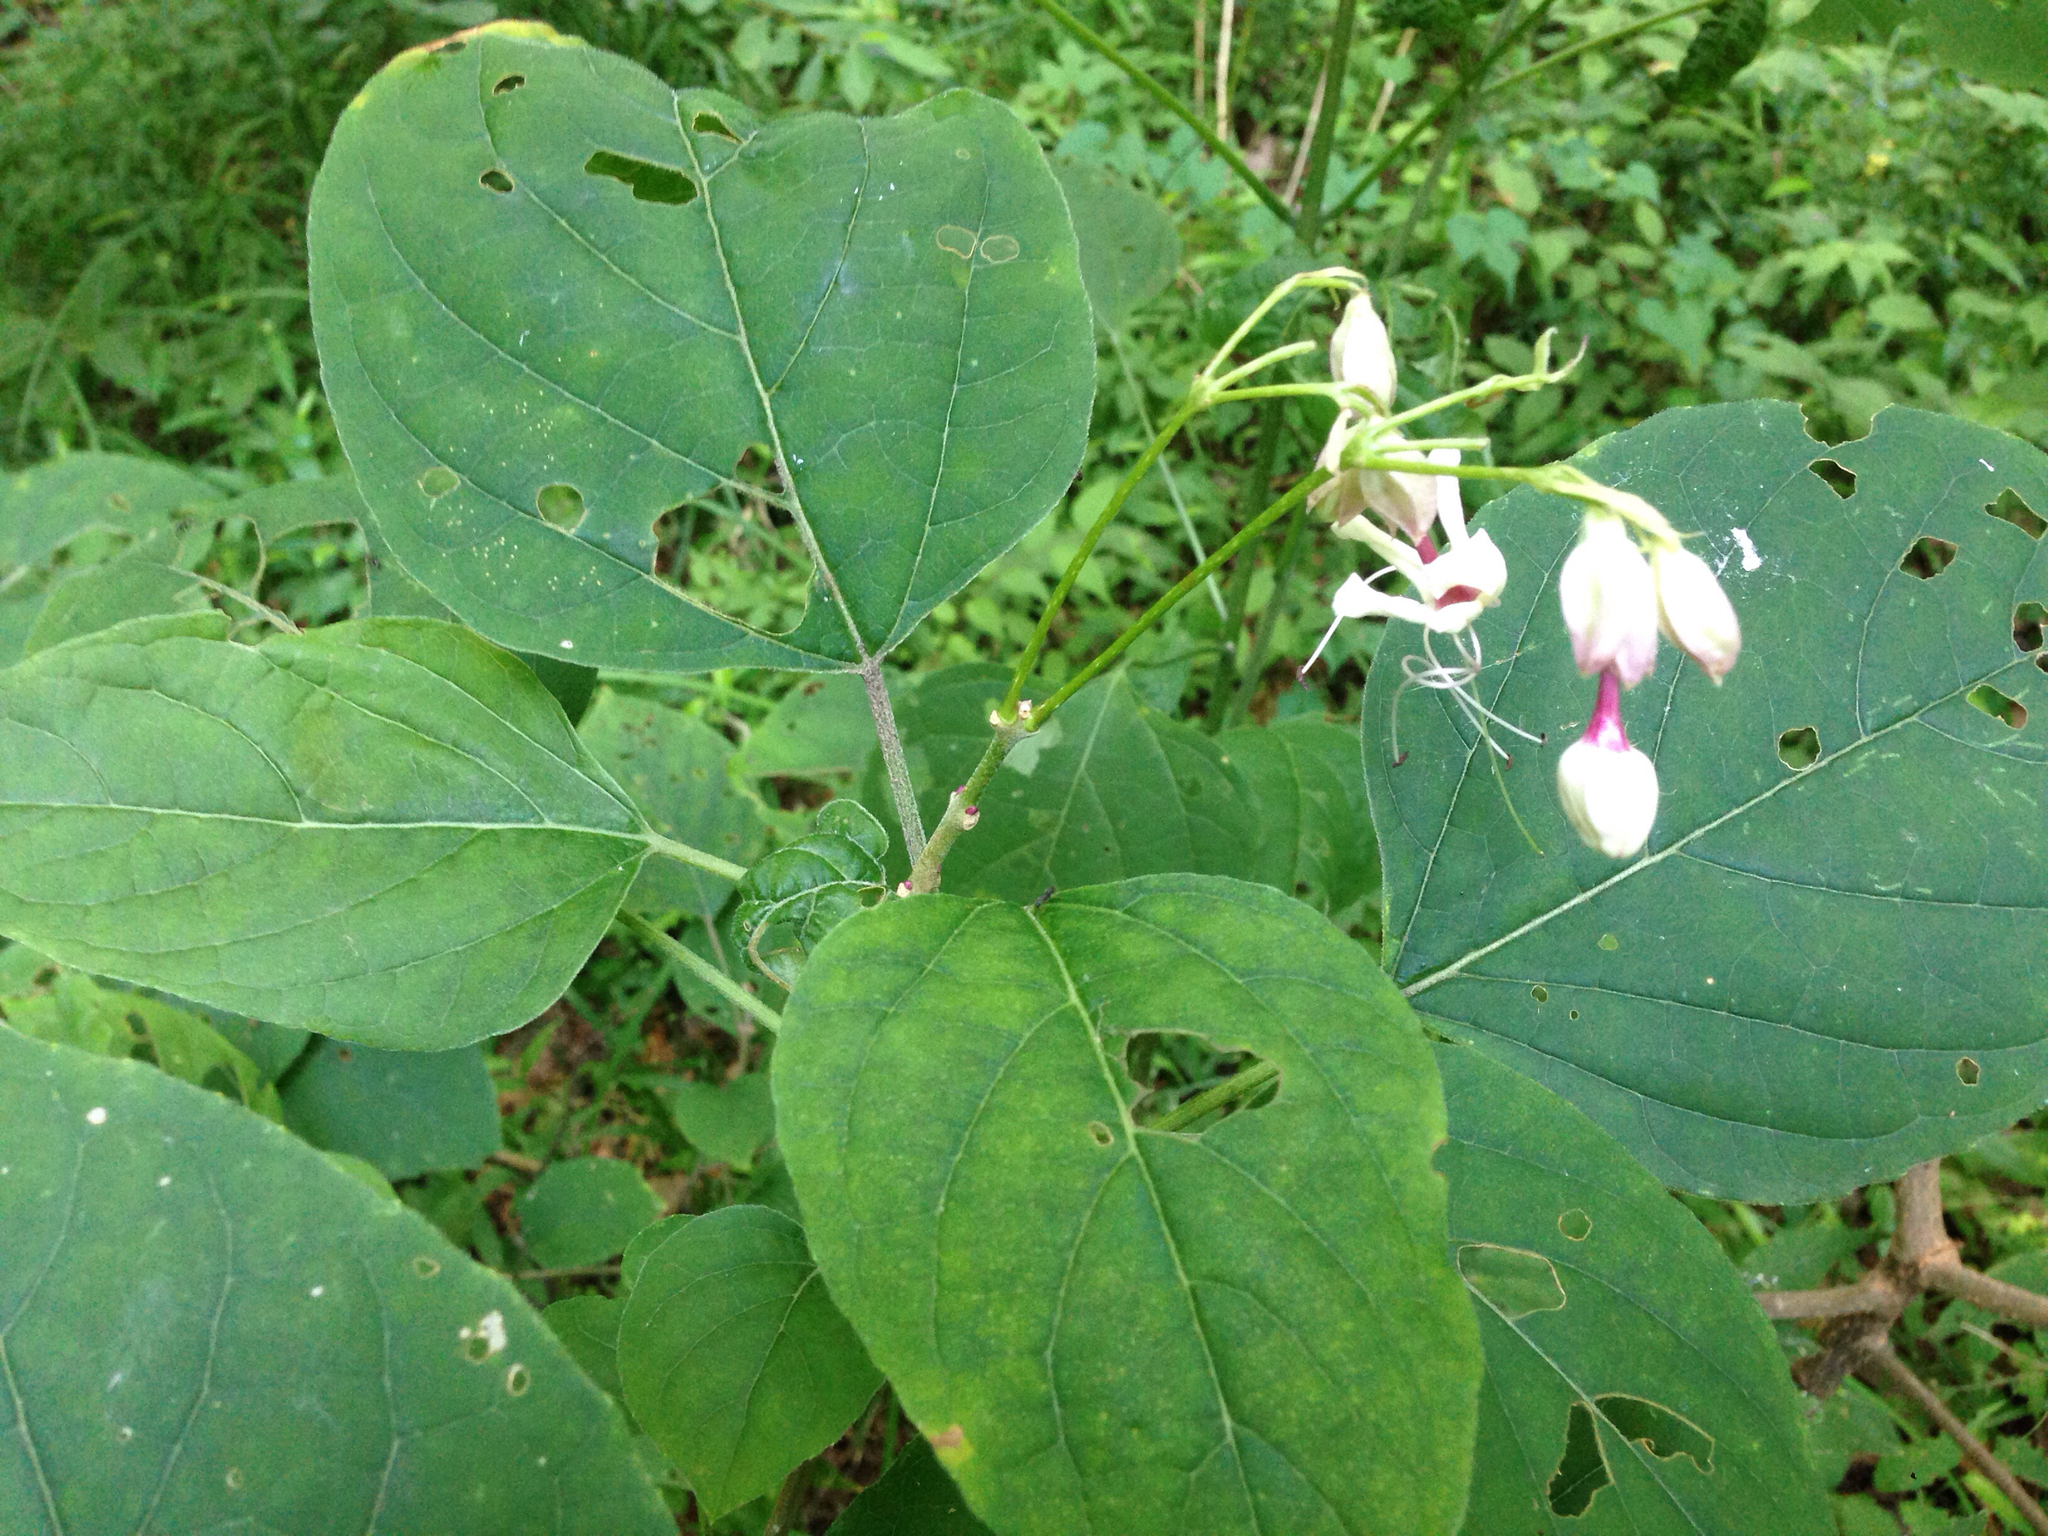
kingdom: Plantae
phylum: Tracheophyta
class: Magnoliopsida
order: Lamiales
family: Lamiaceae
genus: Clerodendrum
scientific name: Clerodendrum trichotomum
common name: Harlequin glorybower
